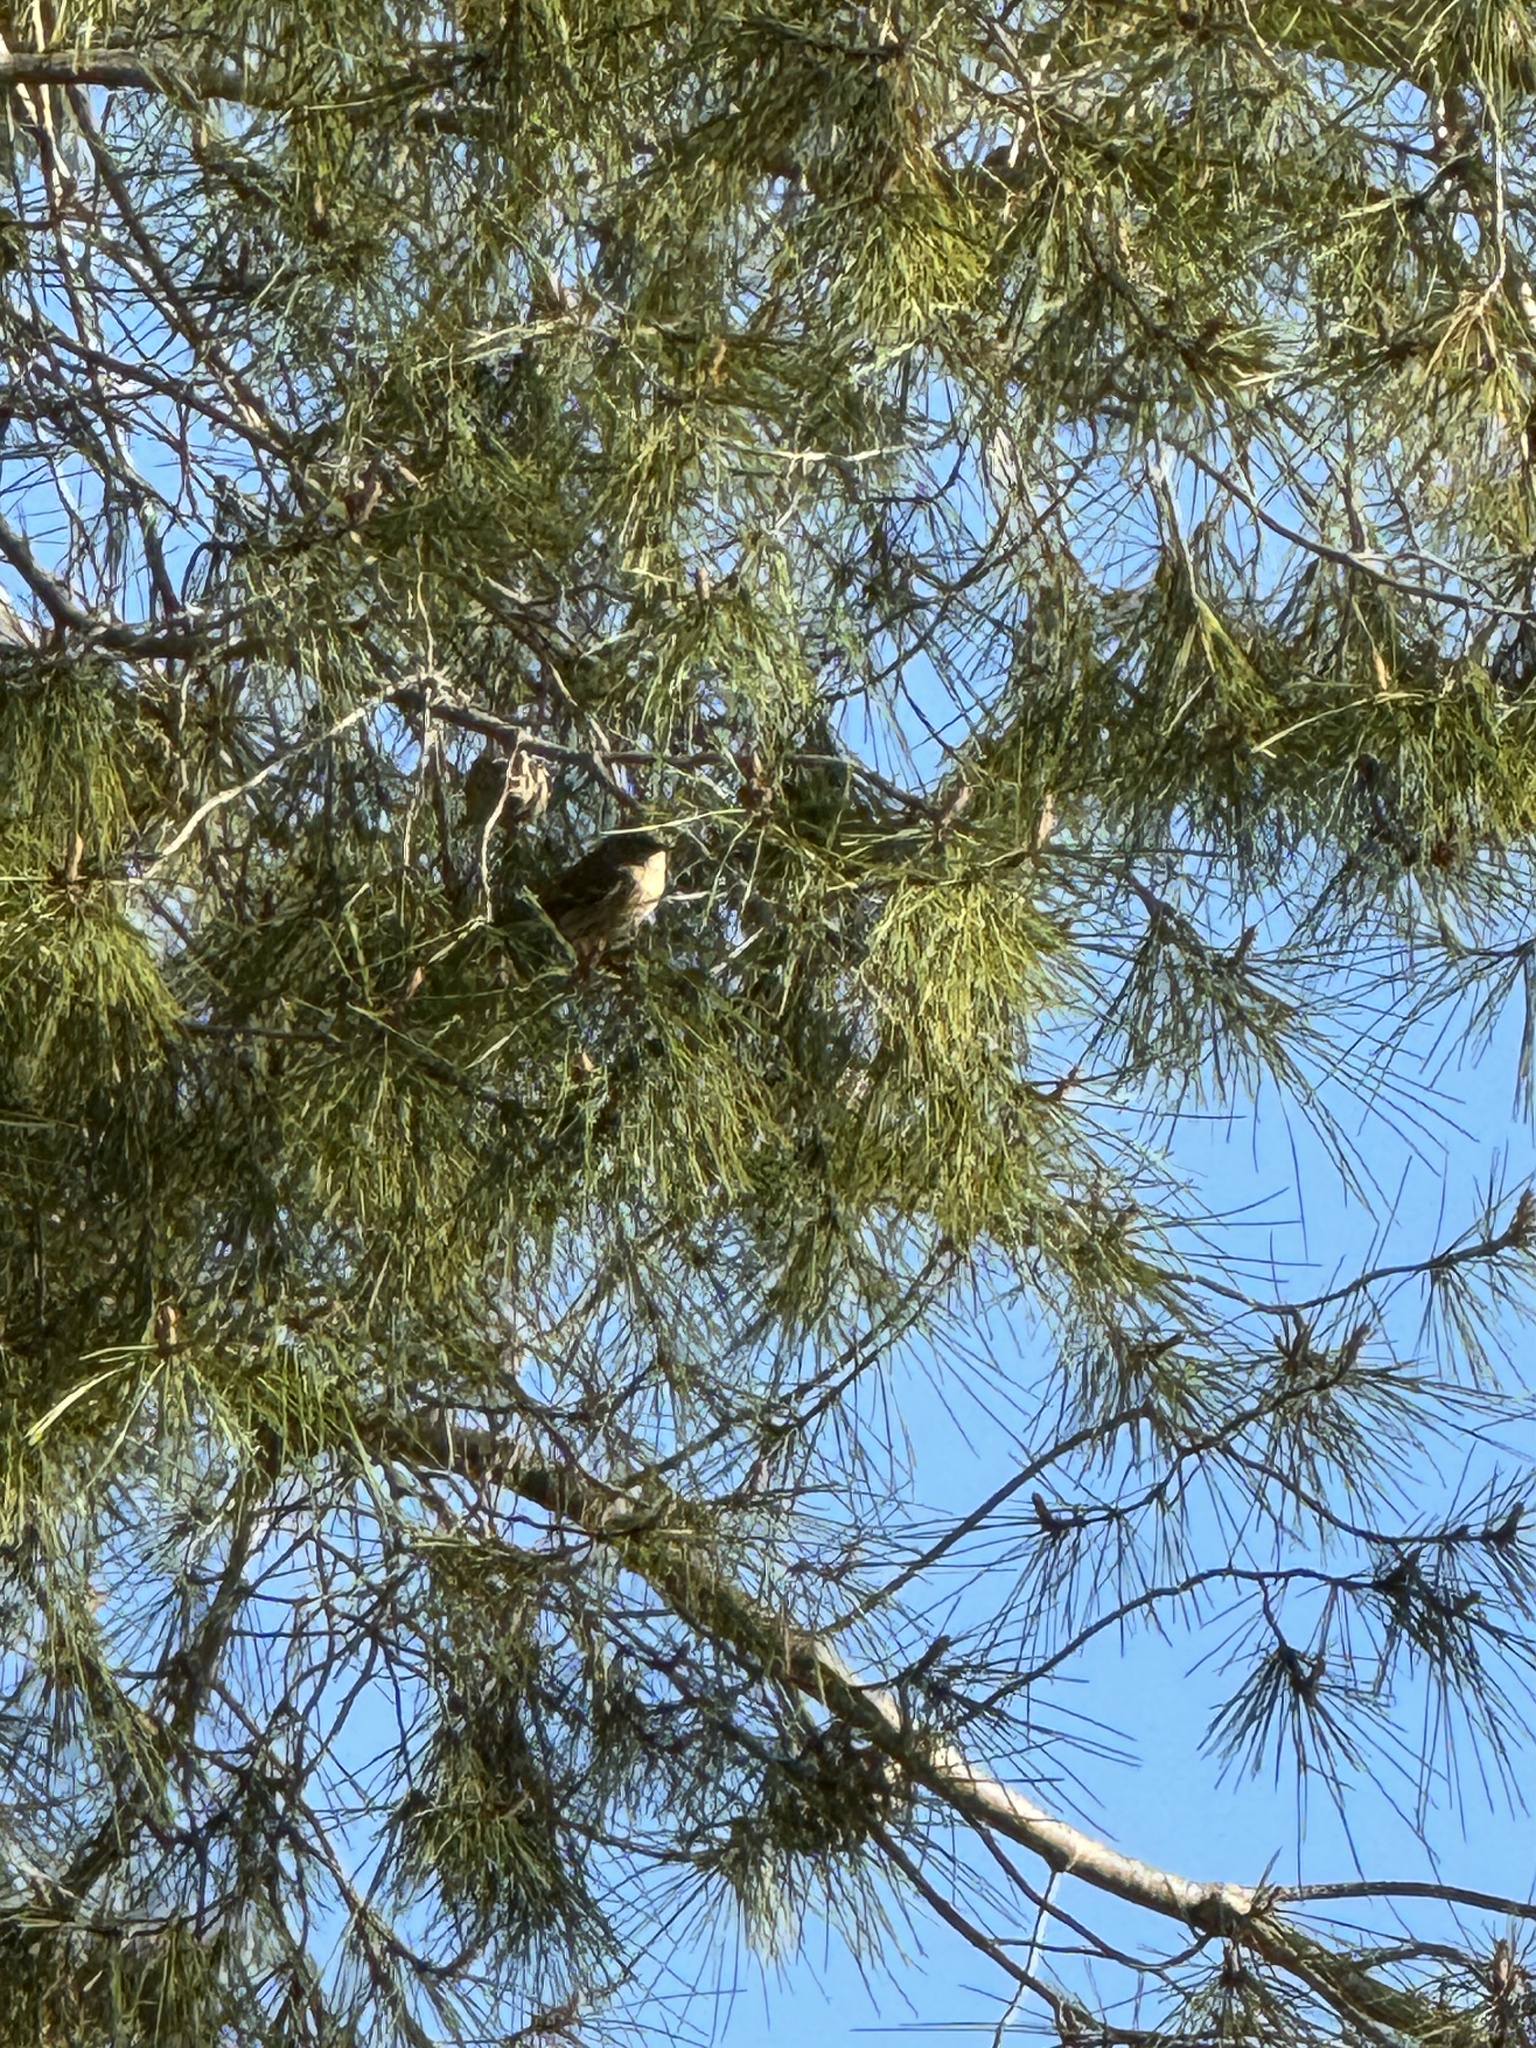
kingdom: Animalia
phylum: Chordata
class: Aves
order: Passeriformes
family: Parulidae
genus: Setophaga
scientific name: Setophaga coronata
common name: Myrtle warbler
